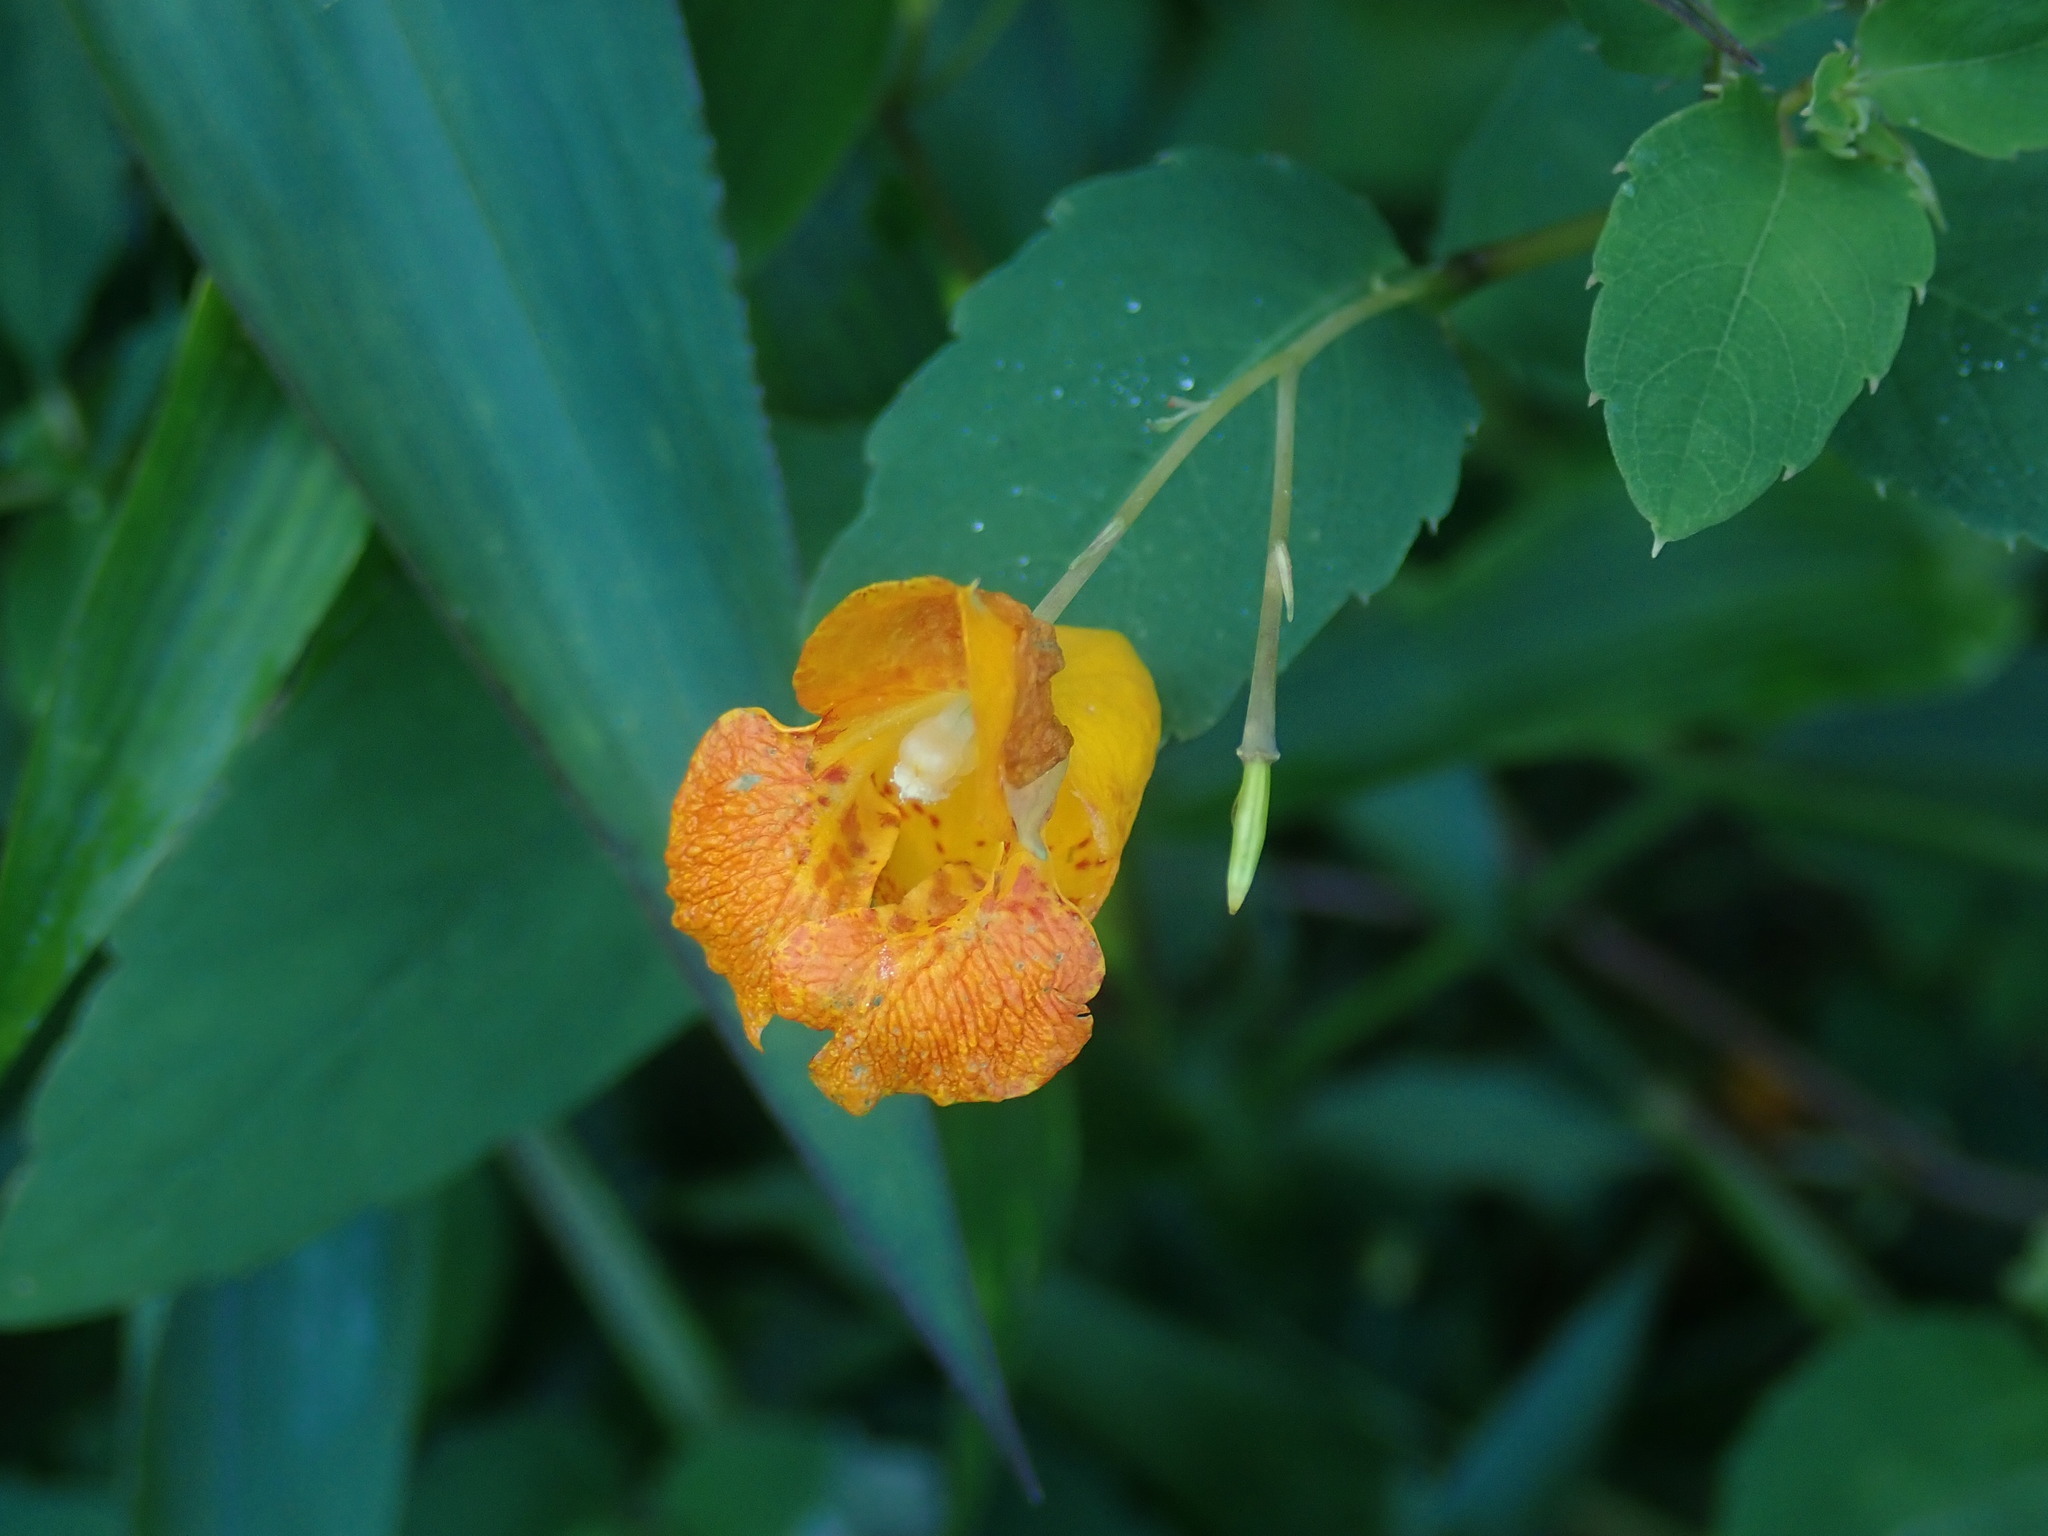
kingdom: Plantae
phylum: Tracheophyta
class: Magnoliopsida
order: Ericales
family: Balsaminaceae
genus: Impatiens
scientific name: Impatiens capensis
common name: Orange balsam
